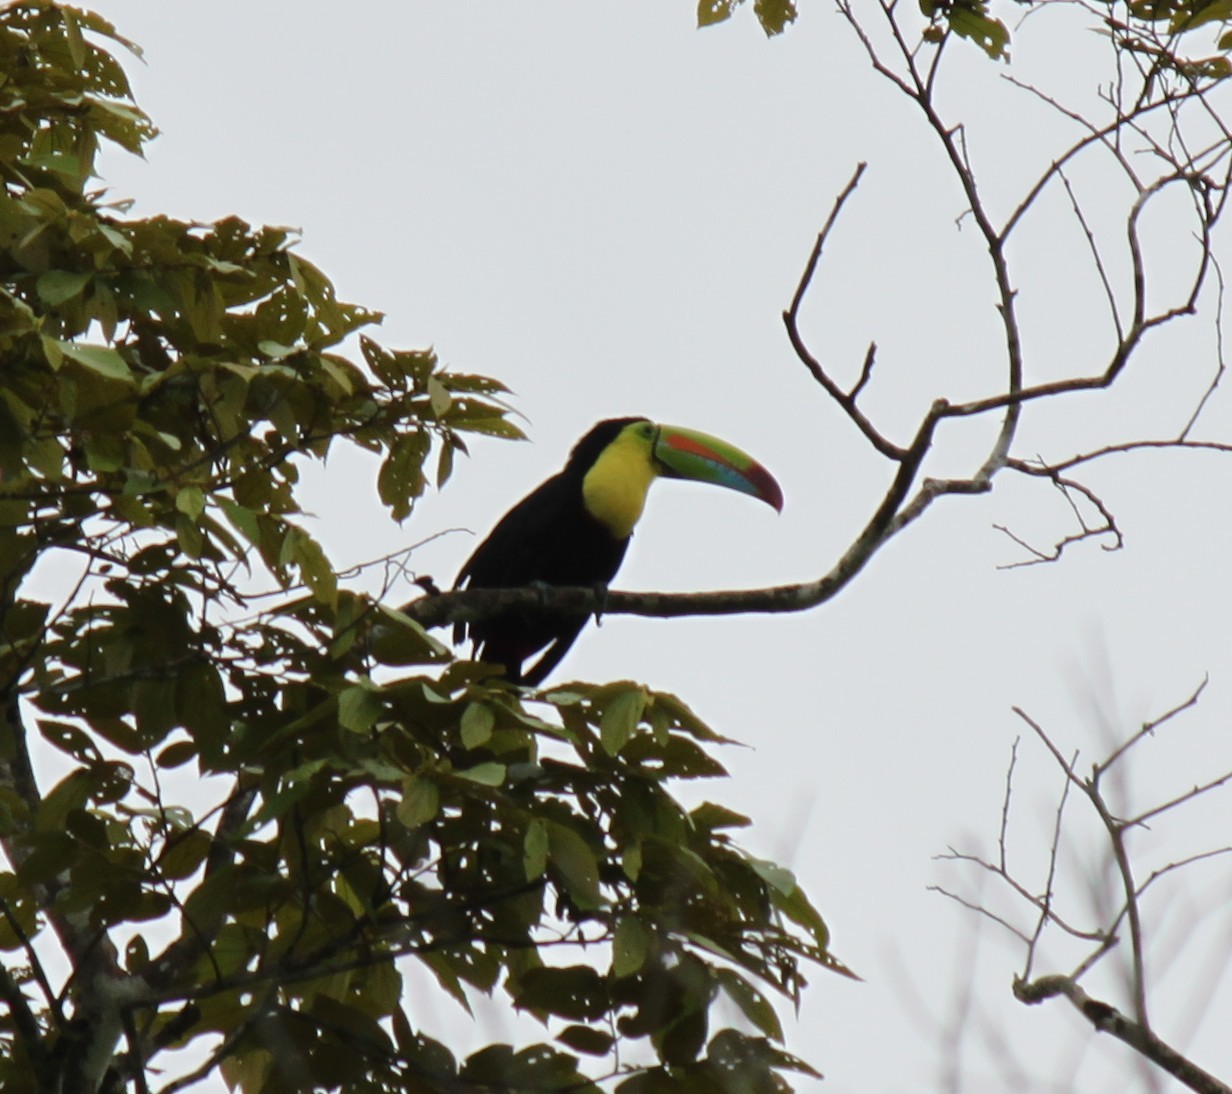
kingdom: Animalia
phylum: Chordata
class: Aves
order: Piciformes
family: Ramphastidae
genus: Ramphastos
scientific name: Ramphastos sulfuratus
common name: Keel-billed toucan
